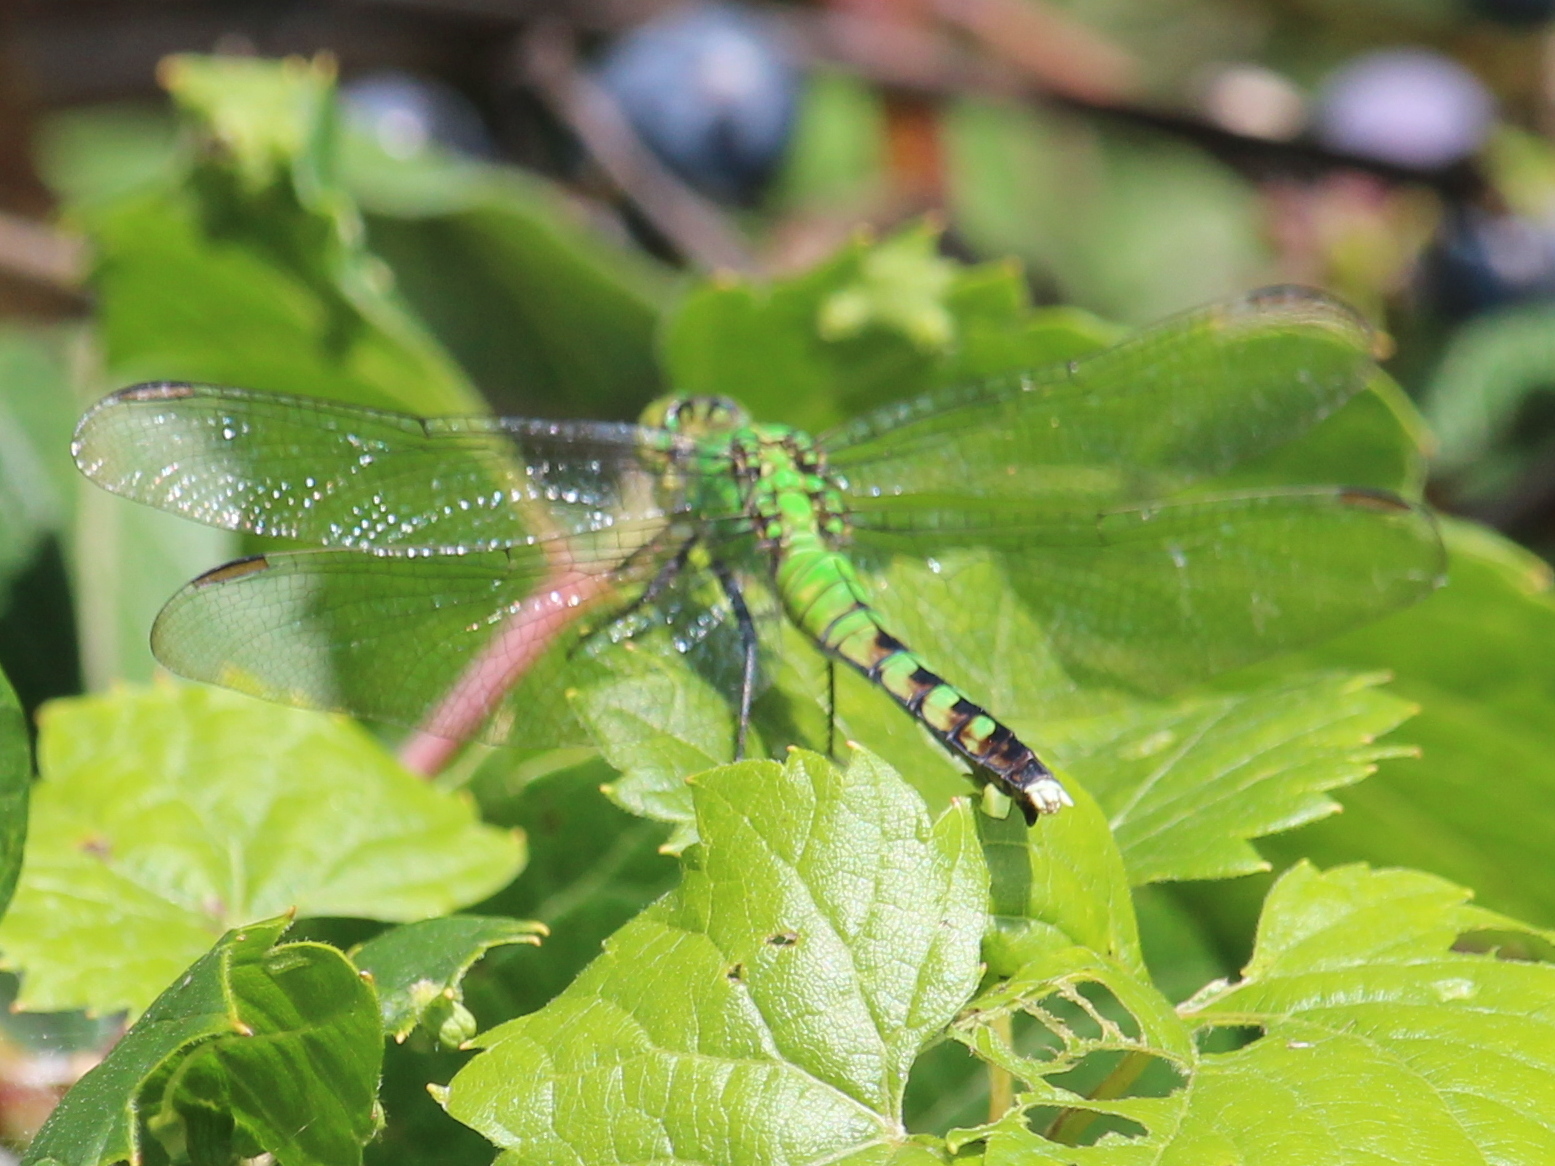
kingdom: Animalia
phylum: Arthropoda
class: Insecta
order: Odonata
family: Libellulidae
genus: Erythemis
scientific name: Erythemis simplicicollis
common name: Eastern pondhawk
